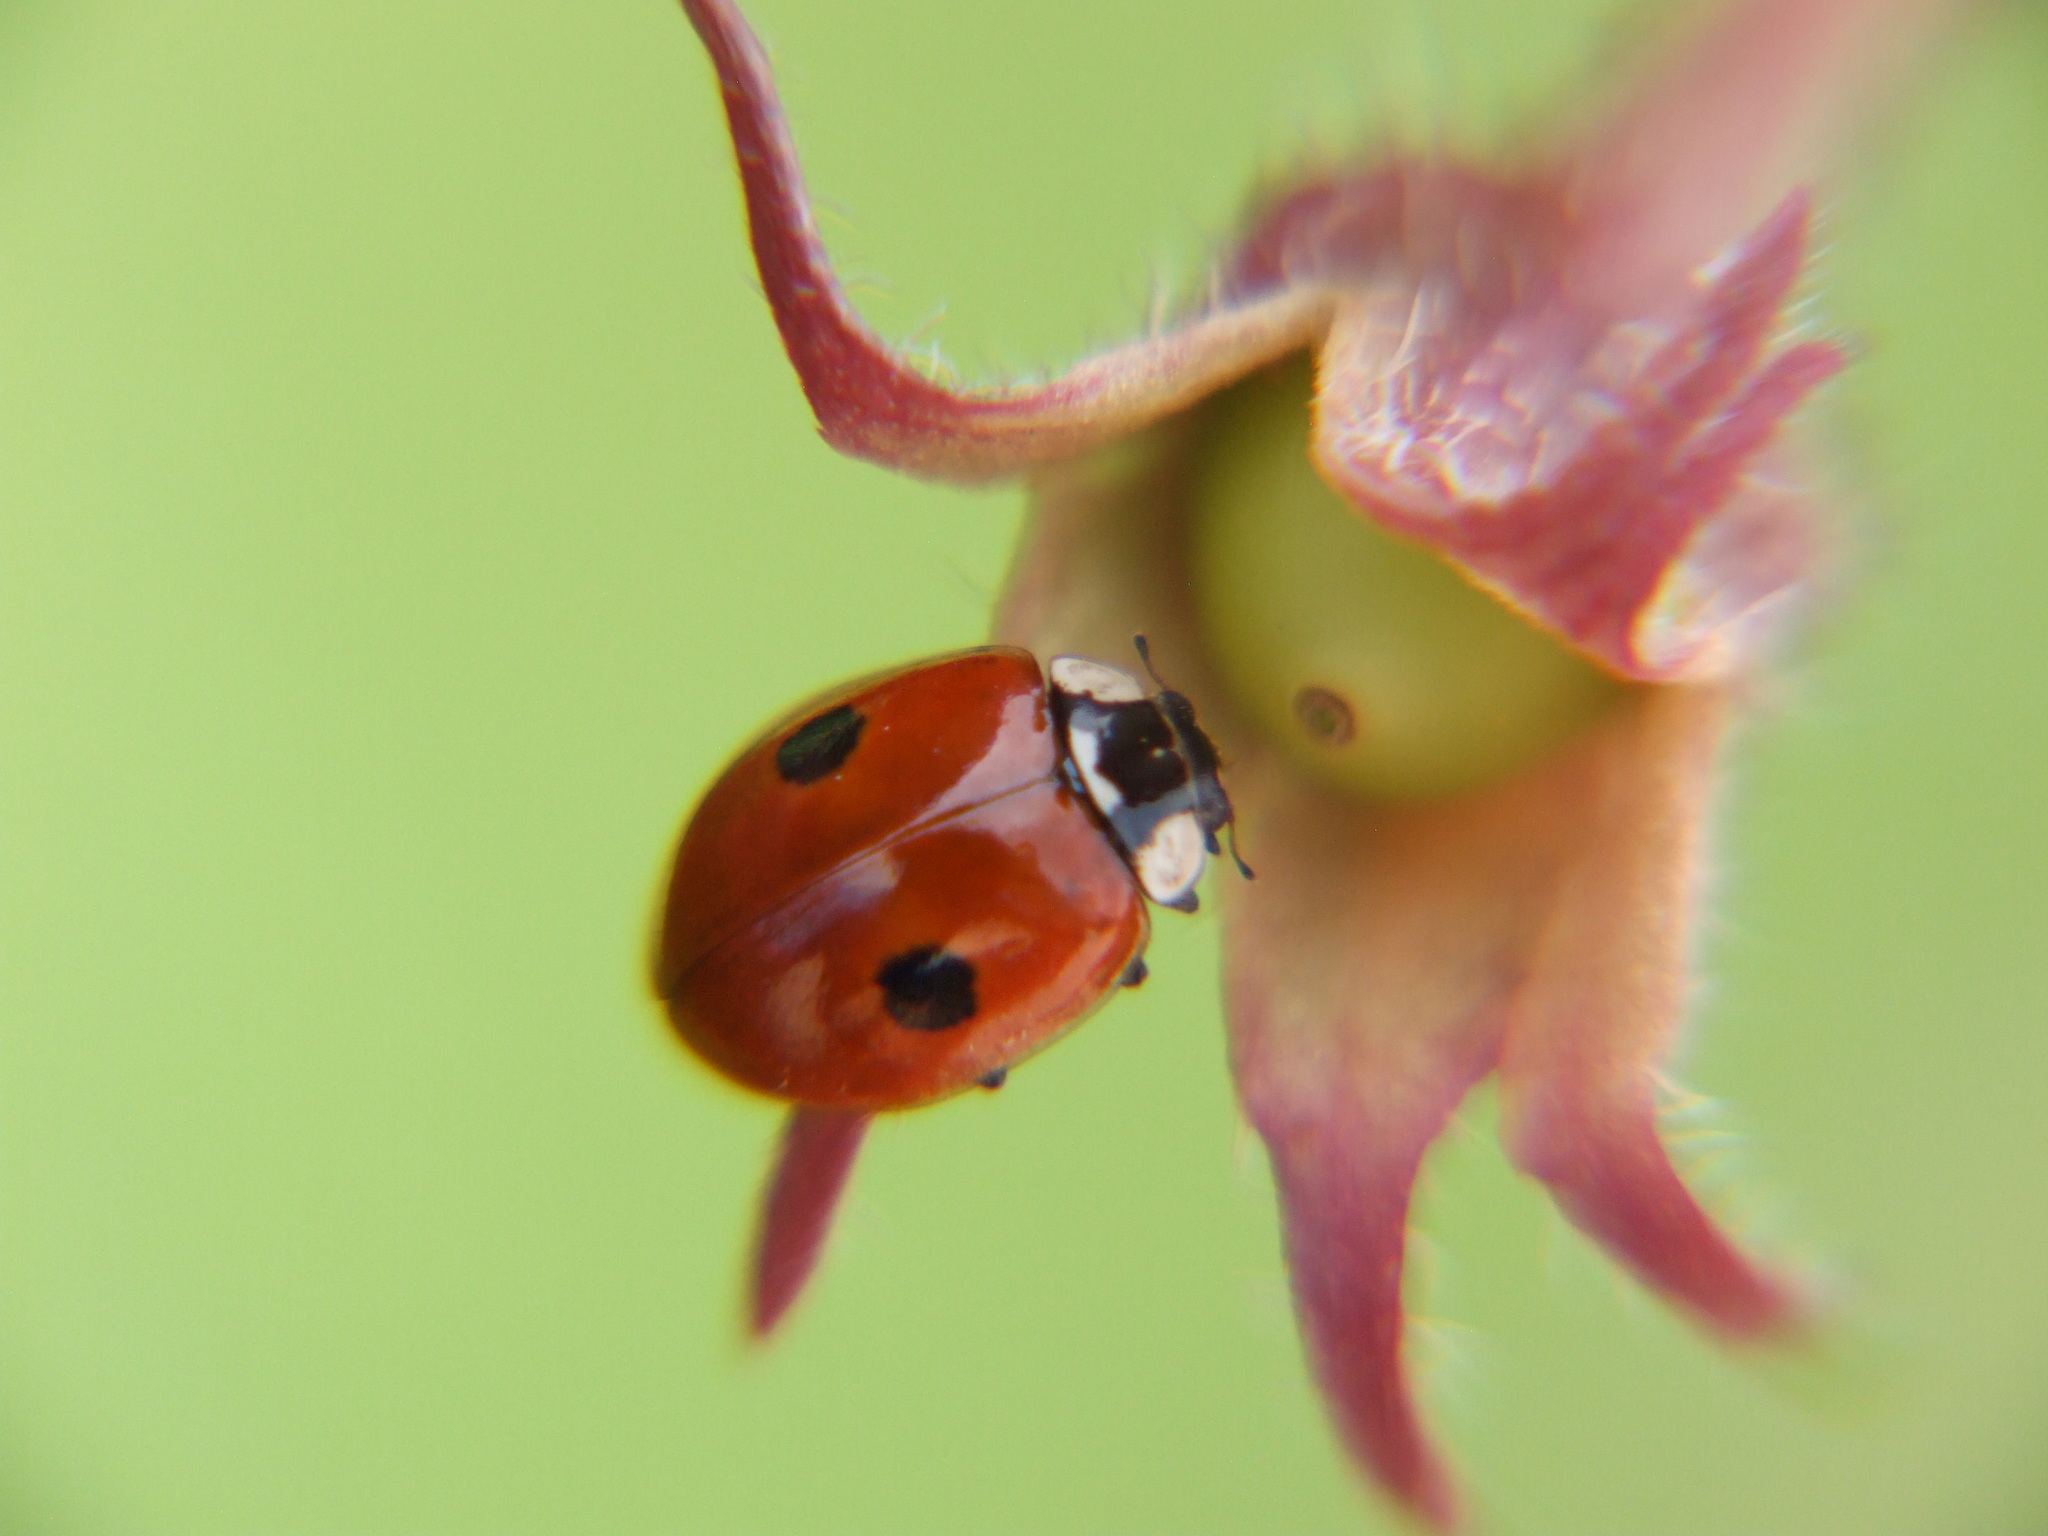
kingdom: Animalia
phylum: Arthropoda
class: Insecta
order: Coleoptera
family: Coccinellidae
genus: Adalia
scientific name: Adalia bipunctata
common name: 2-spot ladybird
